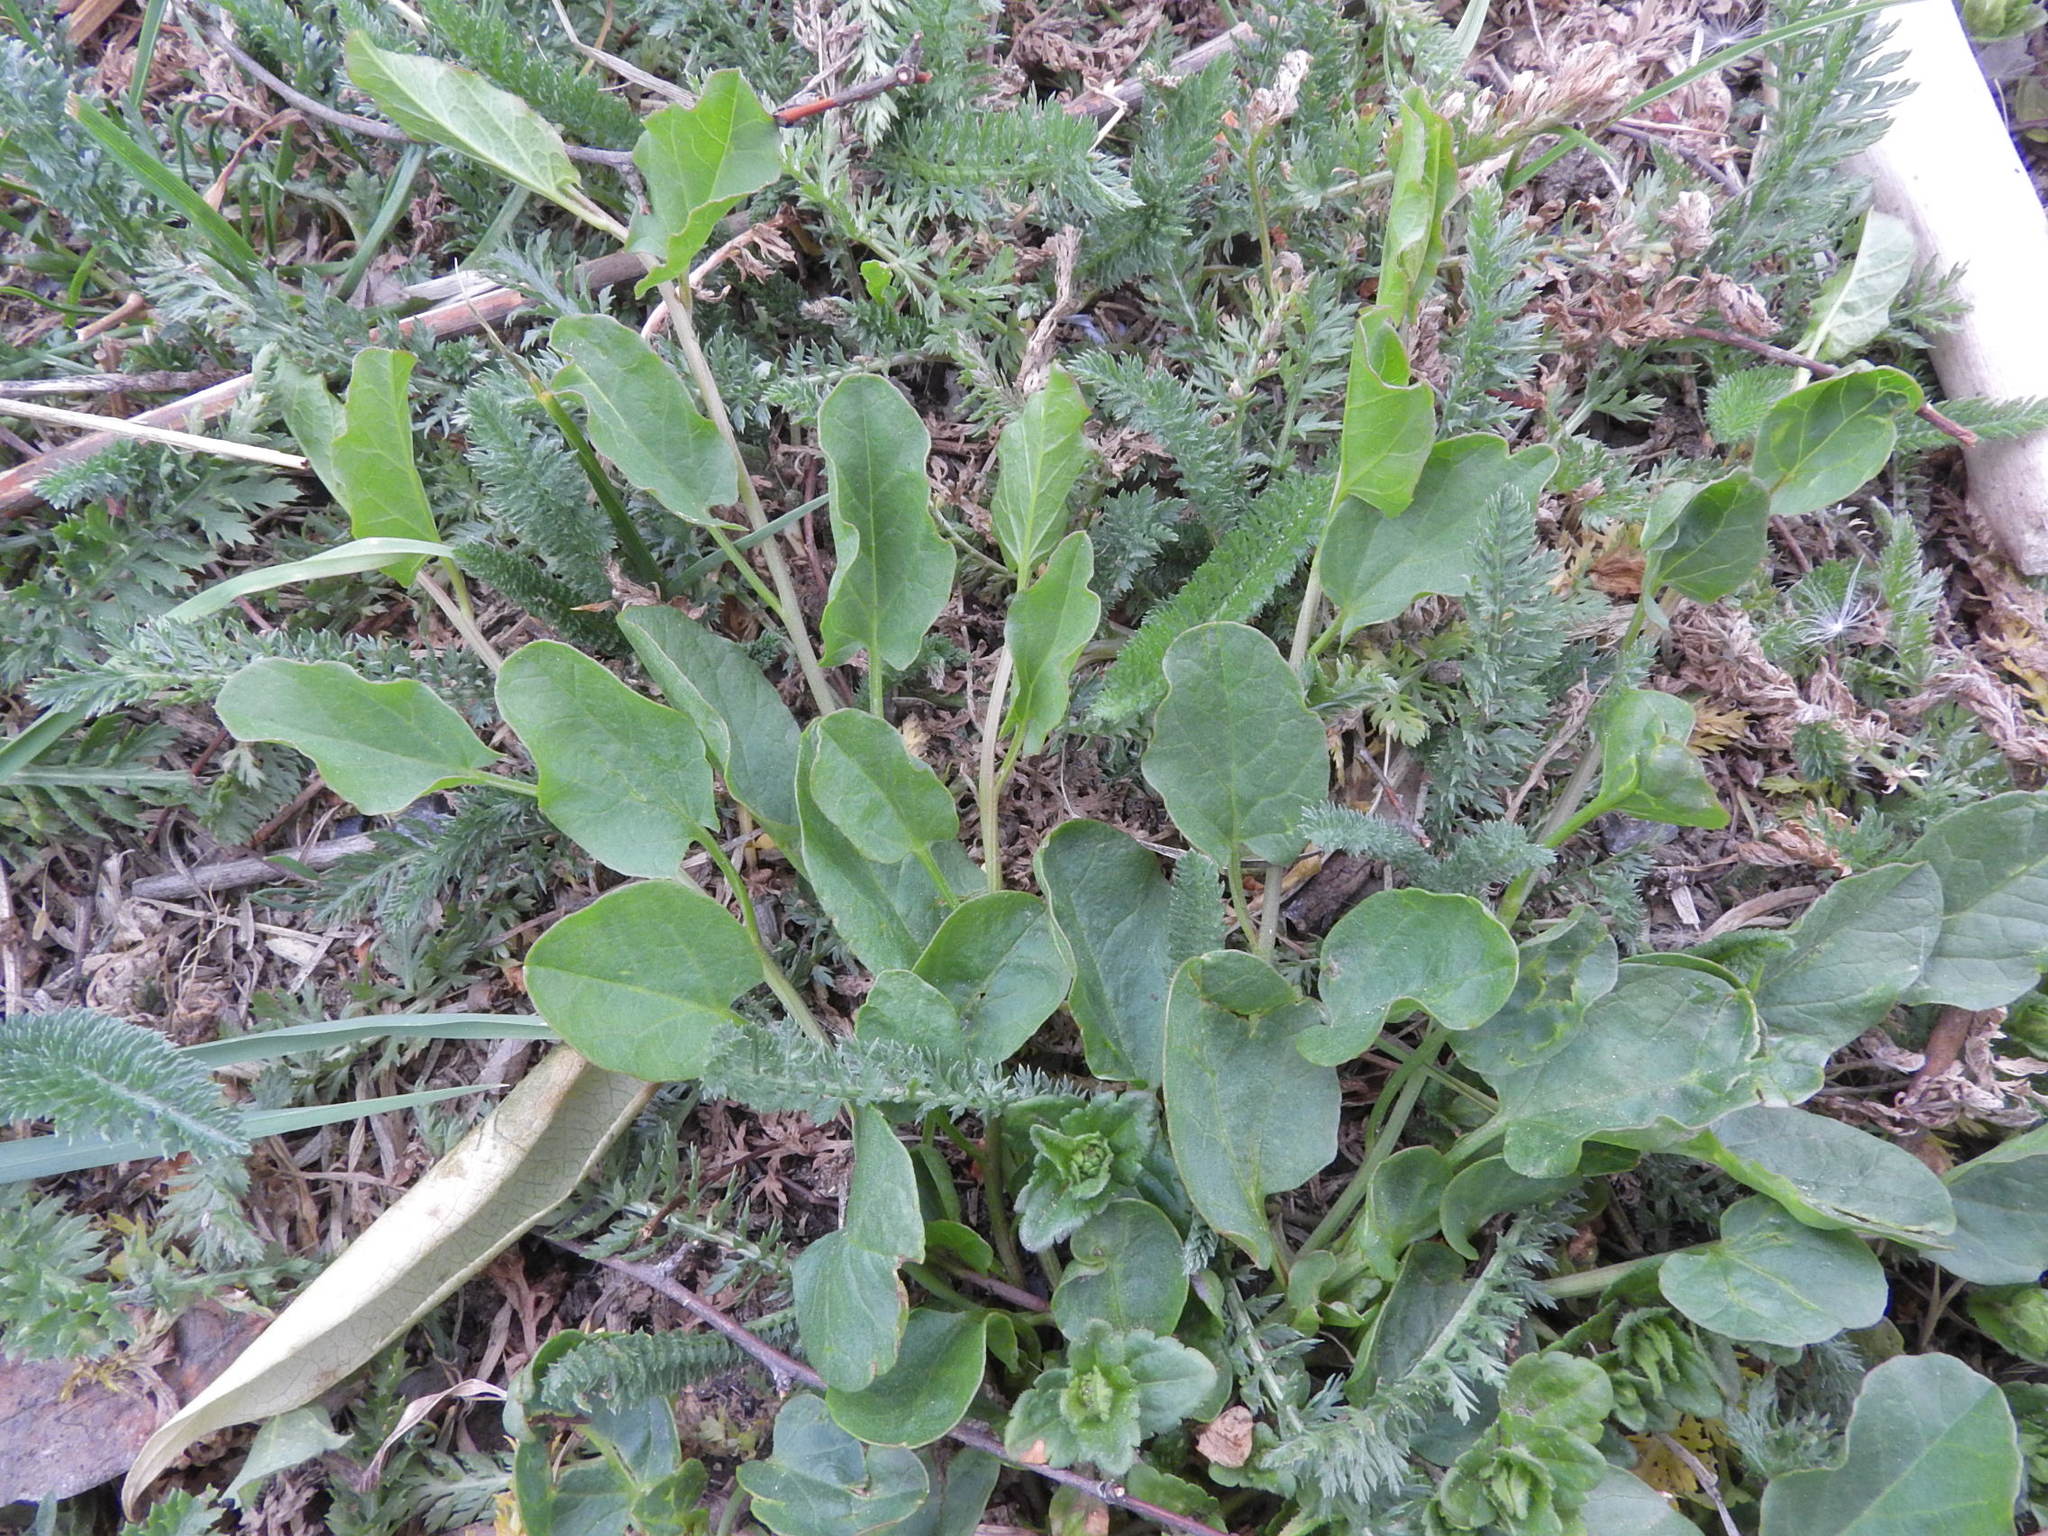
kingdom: Plantae
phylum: Tracheophyta
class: Magnoliopsida
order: Solanales
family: Convolvulaceae
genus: Convolvulus
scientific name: Convolvulus arvensis
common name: Field bindweed
